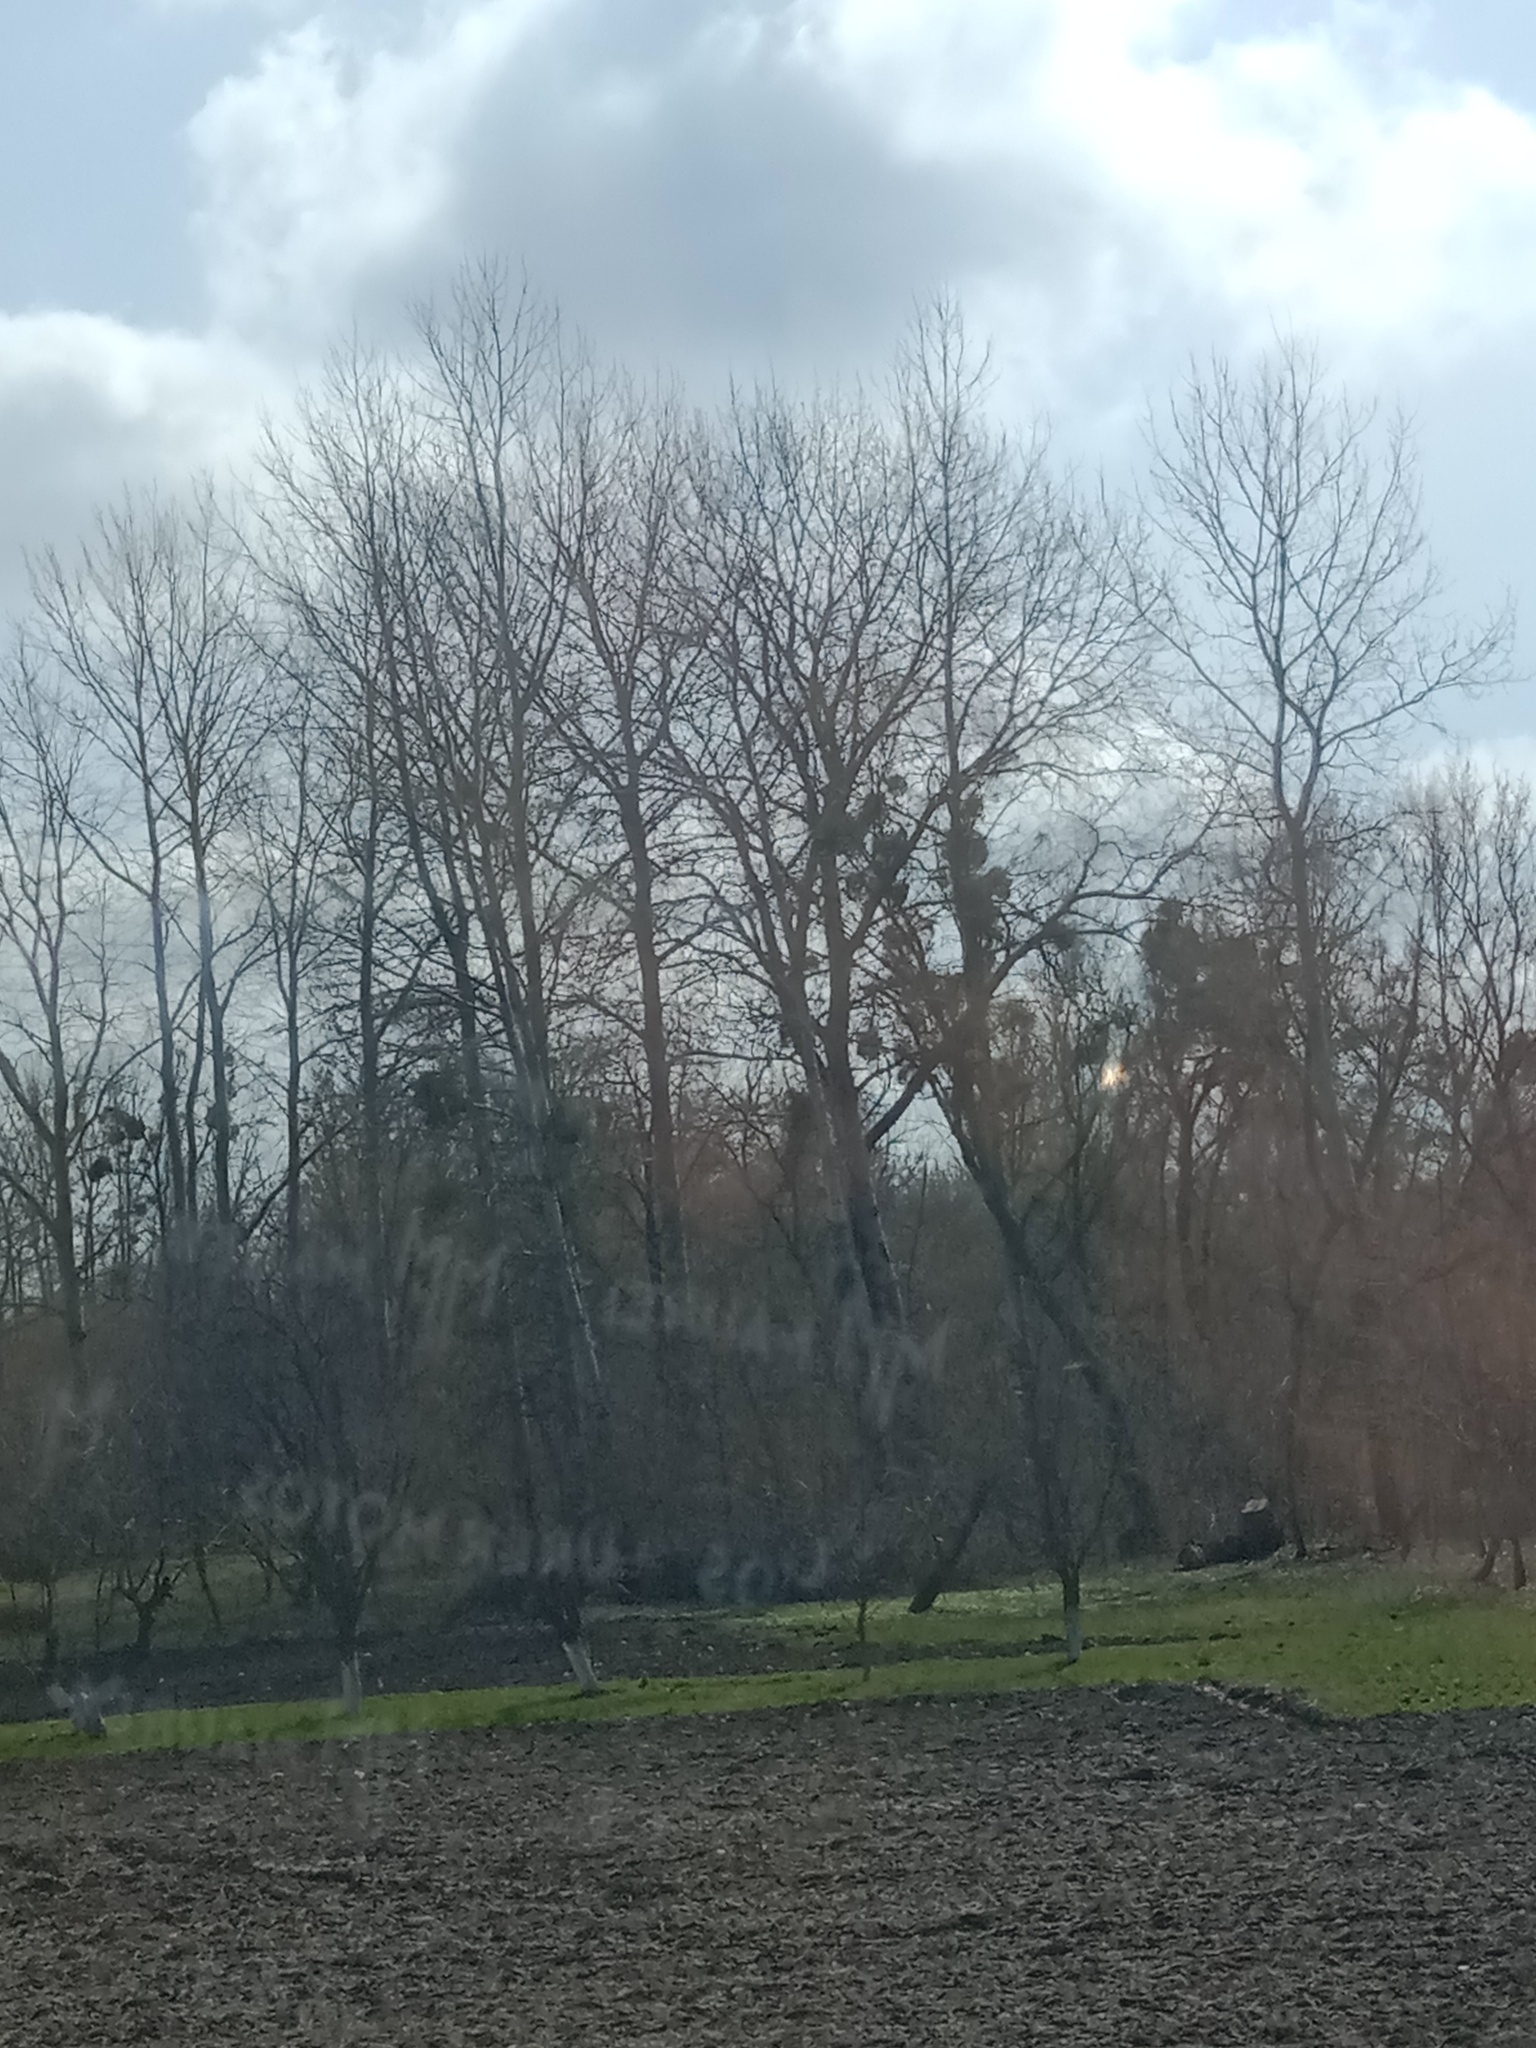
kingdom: Plantae
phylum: Tracheophyta
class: Magnoliopsida
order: Santalales
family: Viscaceae
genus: Viscum
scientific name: Viscum album
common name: Mistletoe
